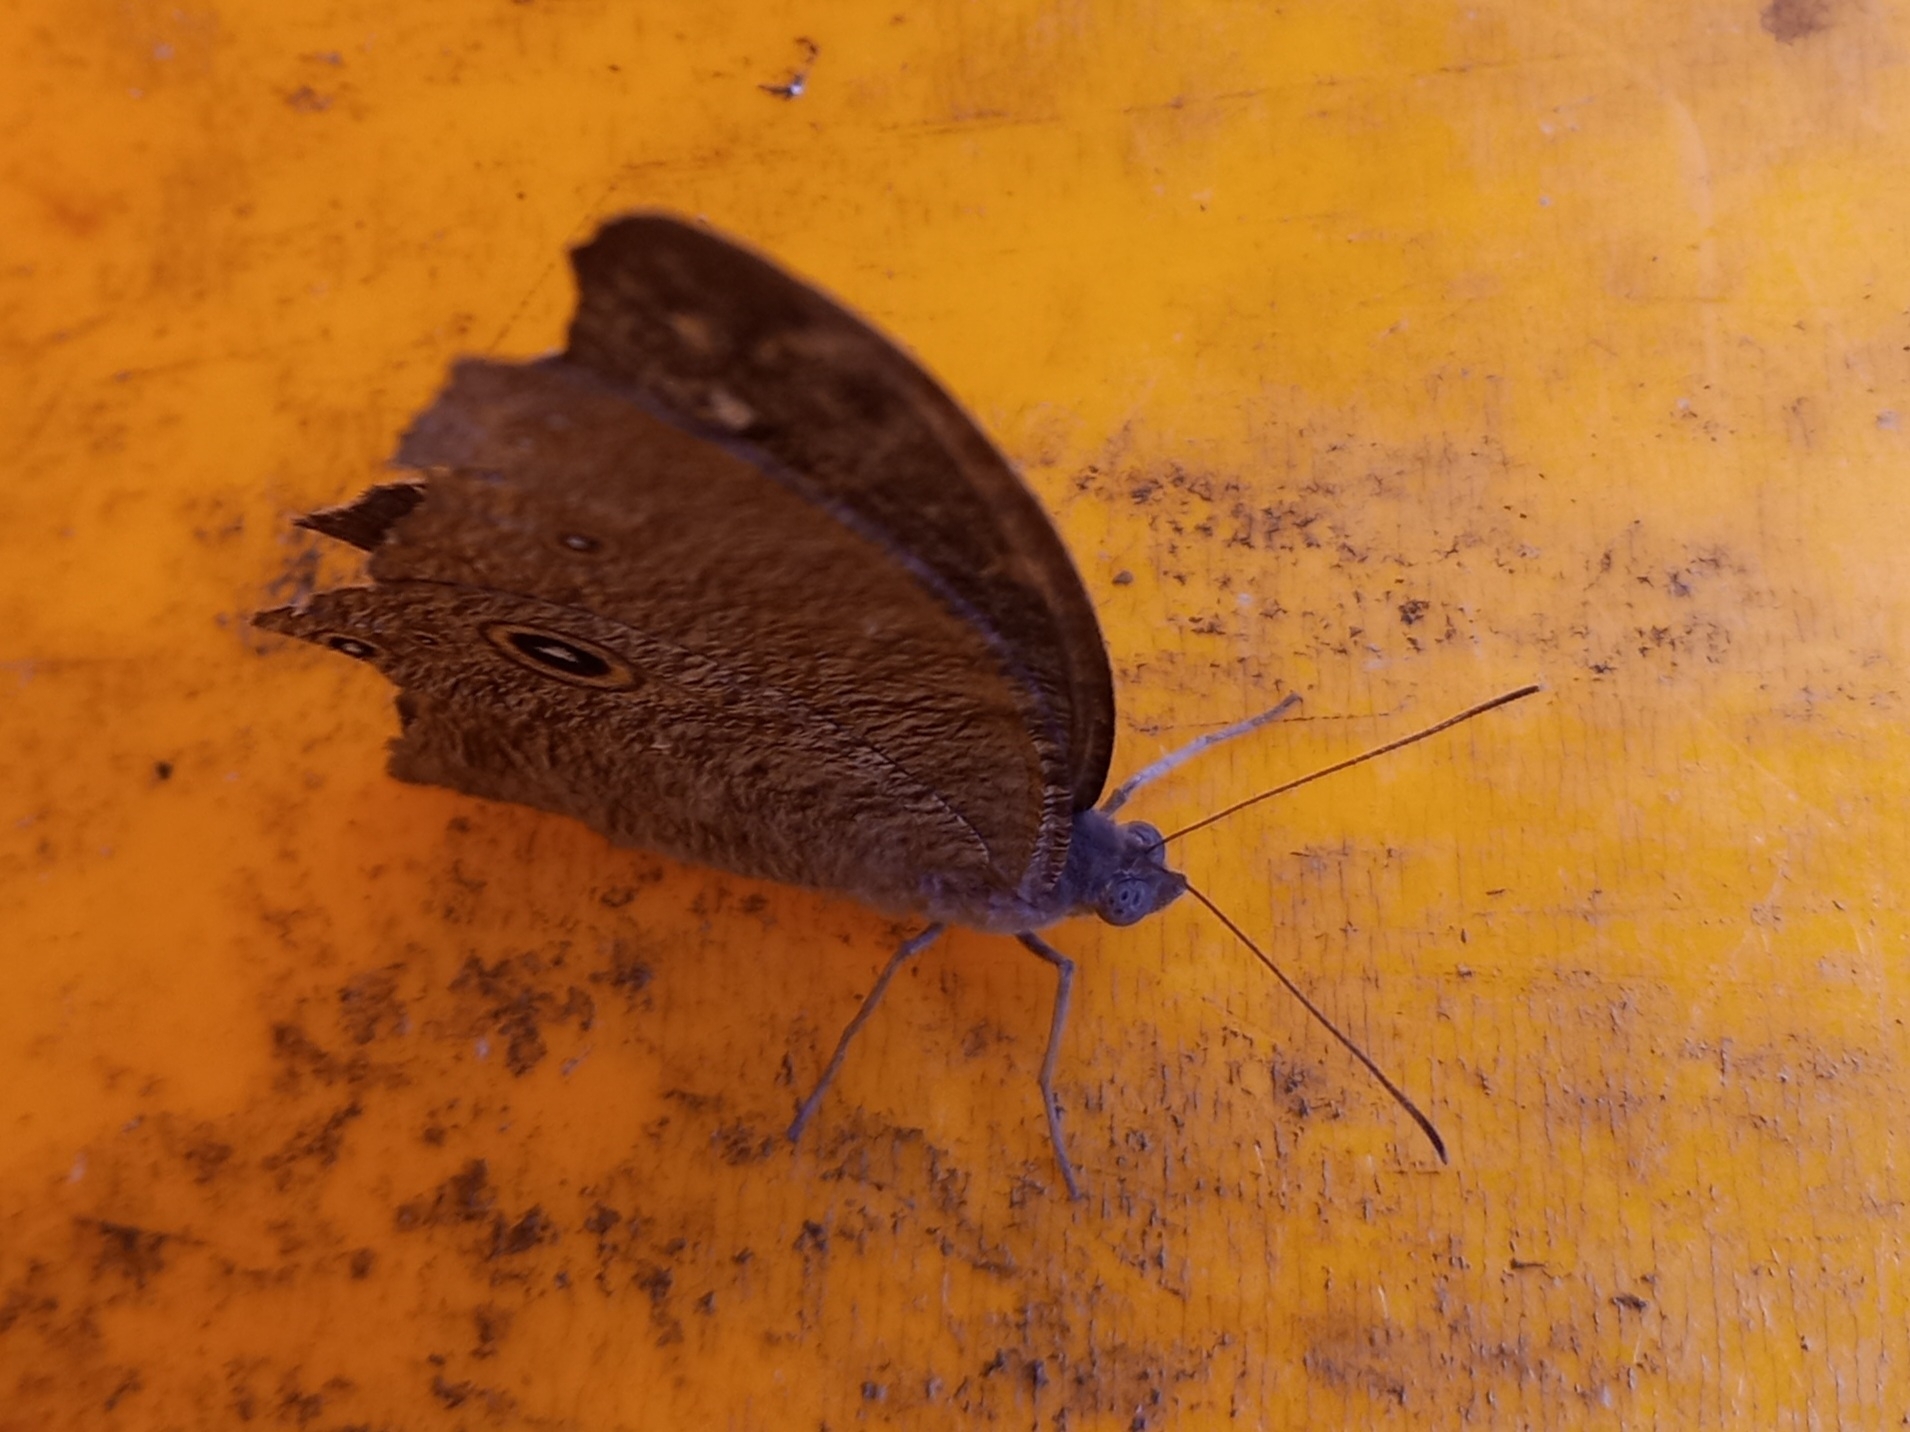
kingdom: Animalia
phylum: Arthropoda
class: Insecta
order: Lepidoptera
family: Nymphalidae
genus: Melanitis
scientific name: Melanitis leda
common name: Twilight brown
